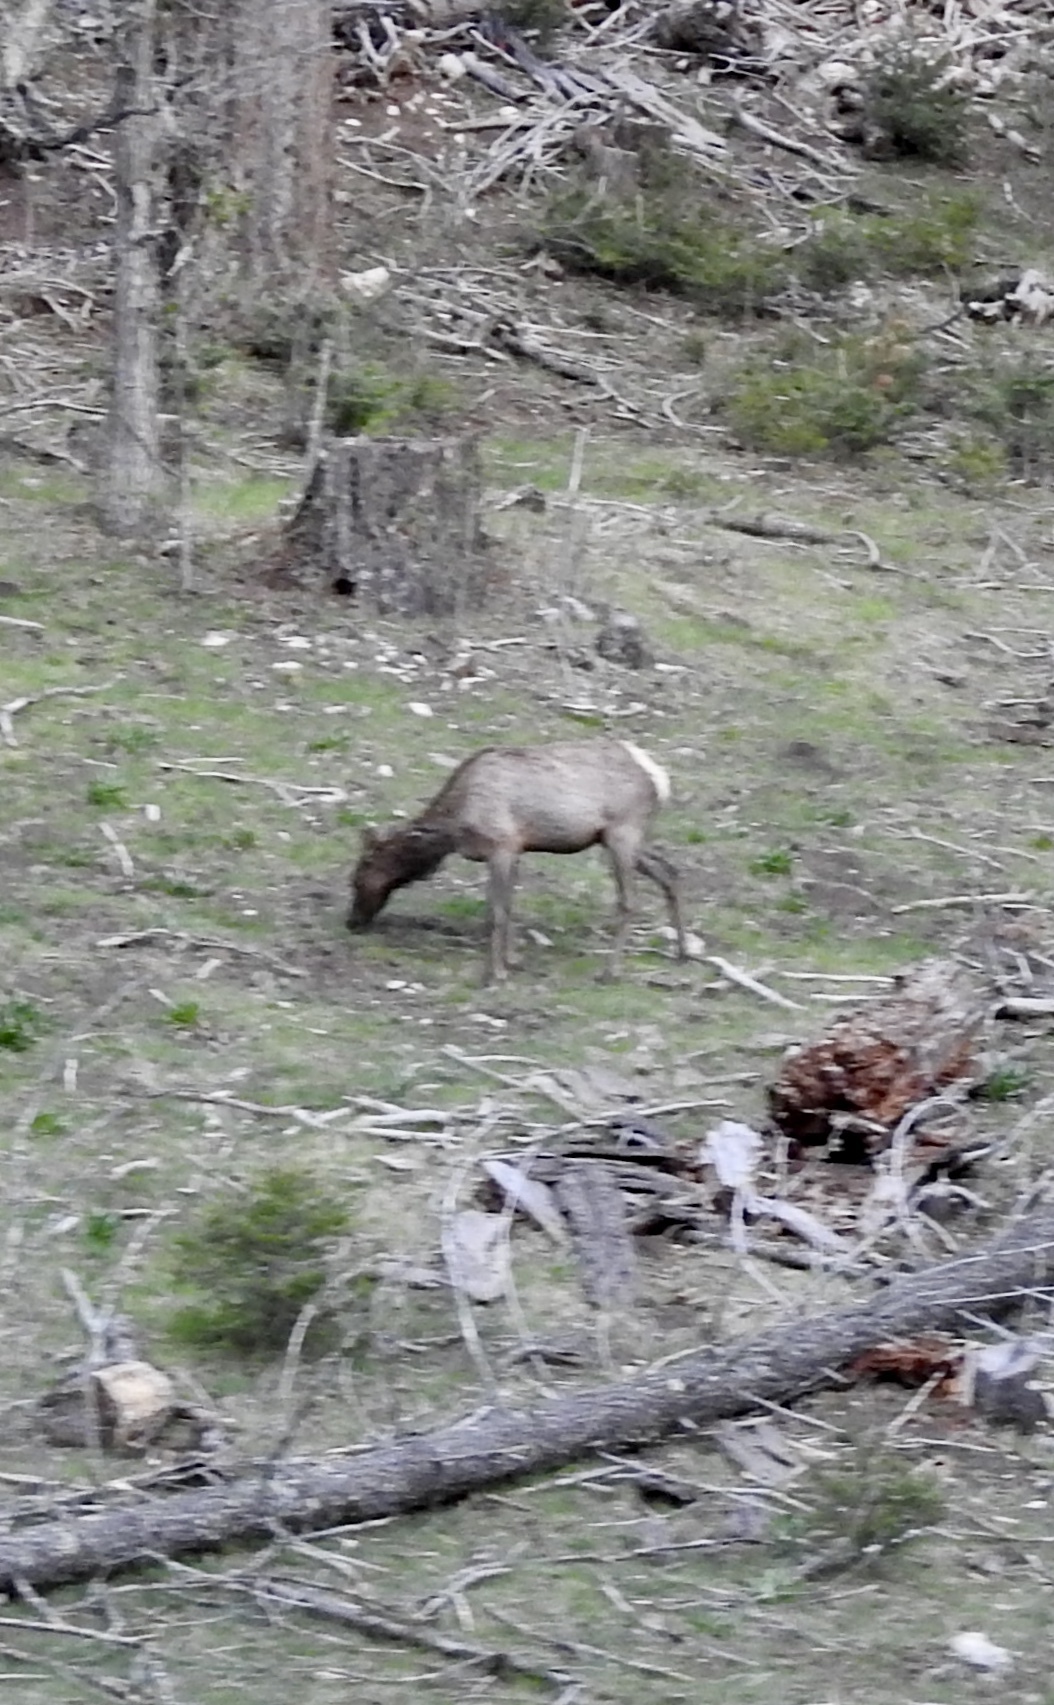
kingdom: Animalia
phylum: Chordata
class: Mammalia
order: Artiodactyla
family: Cervidae
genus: Cervus
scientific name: Cervus elaphus
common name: Red deer
